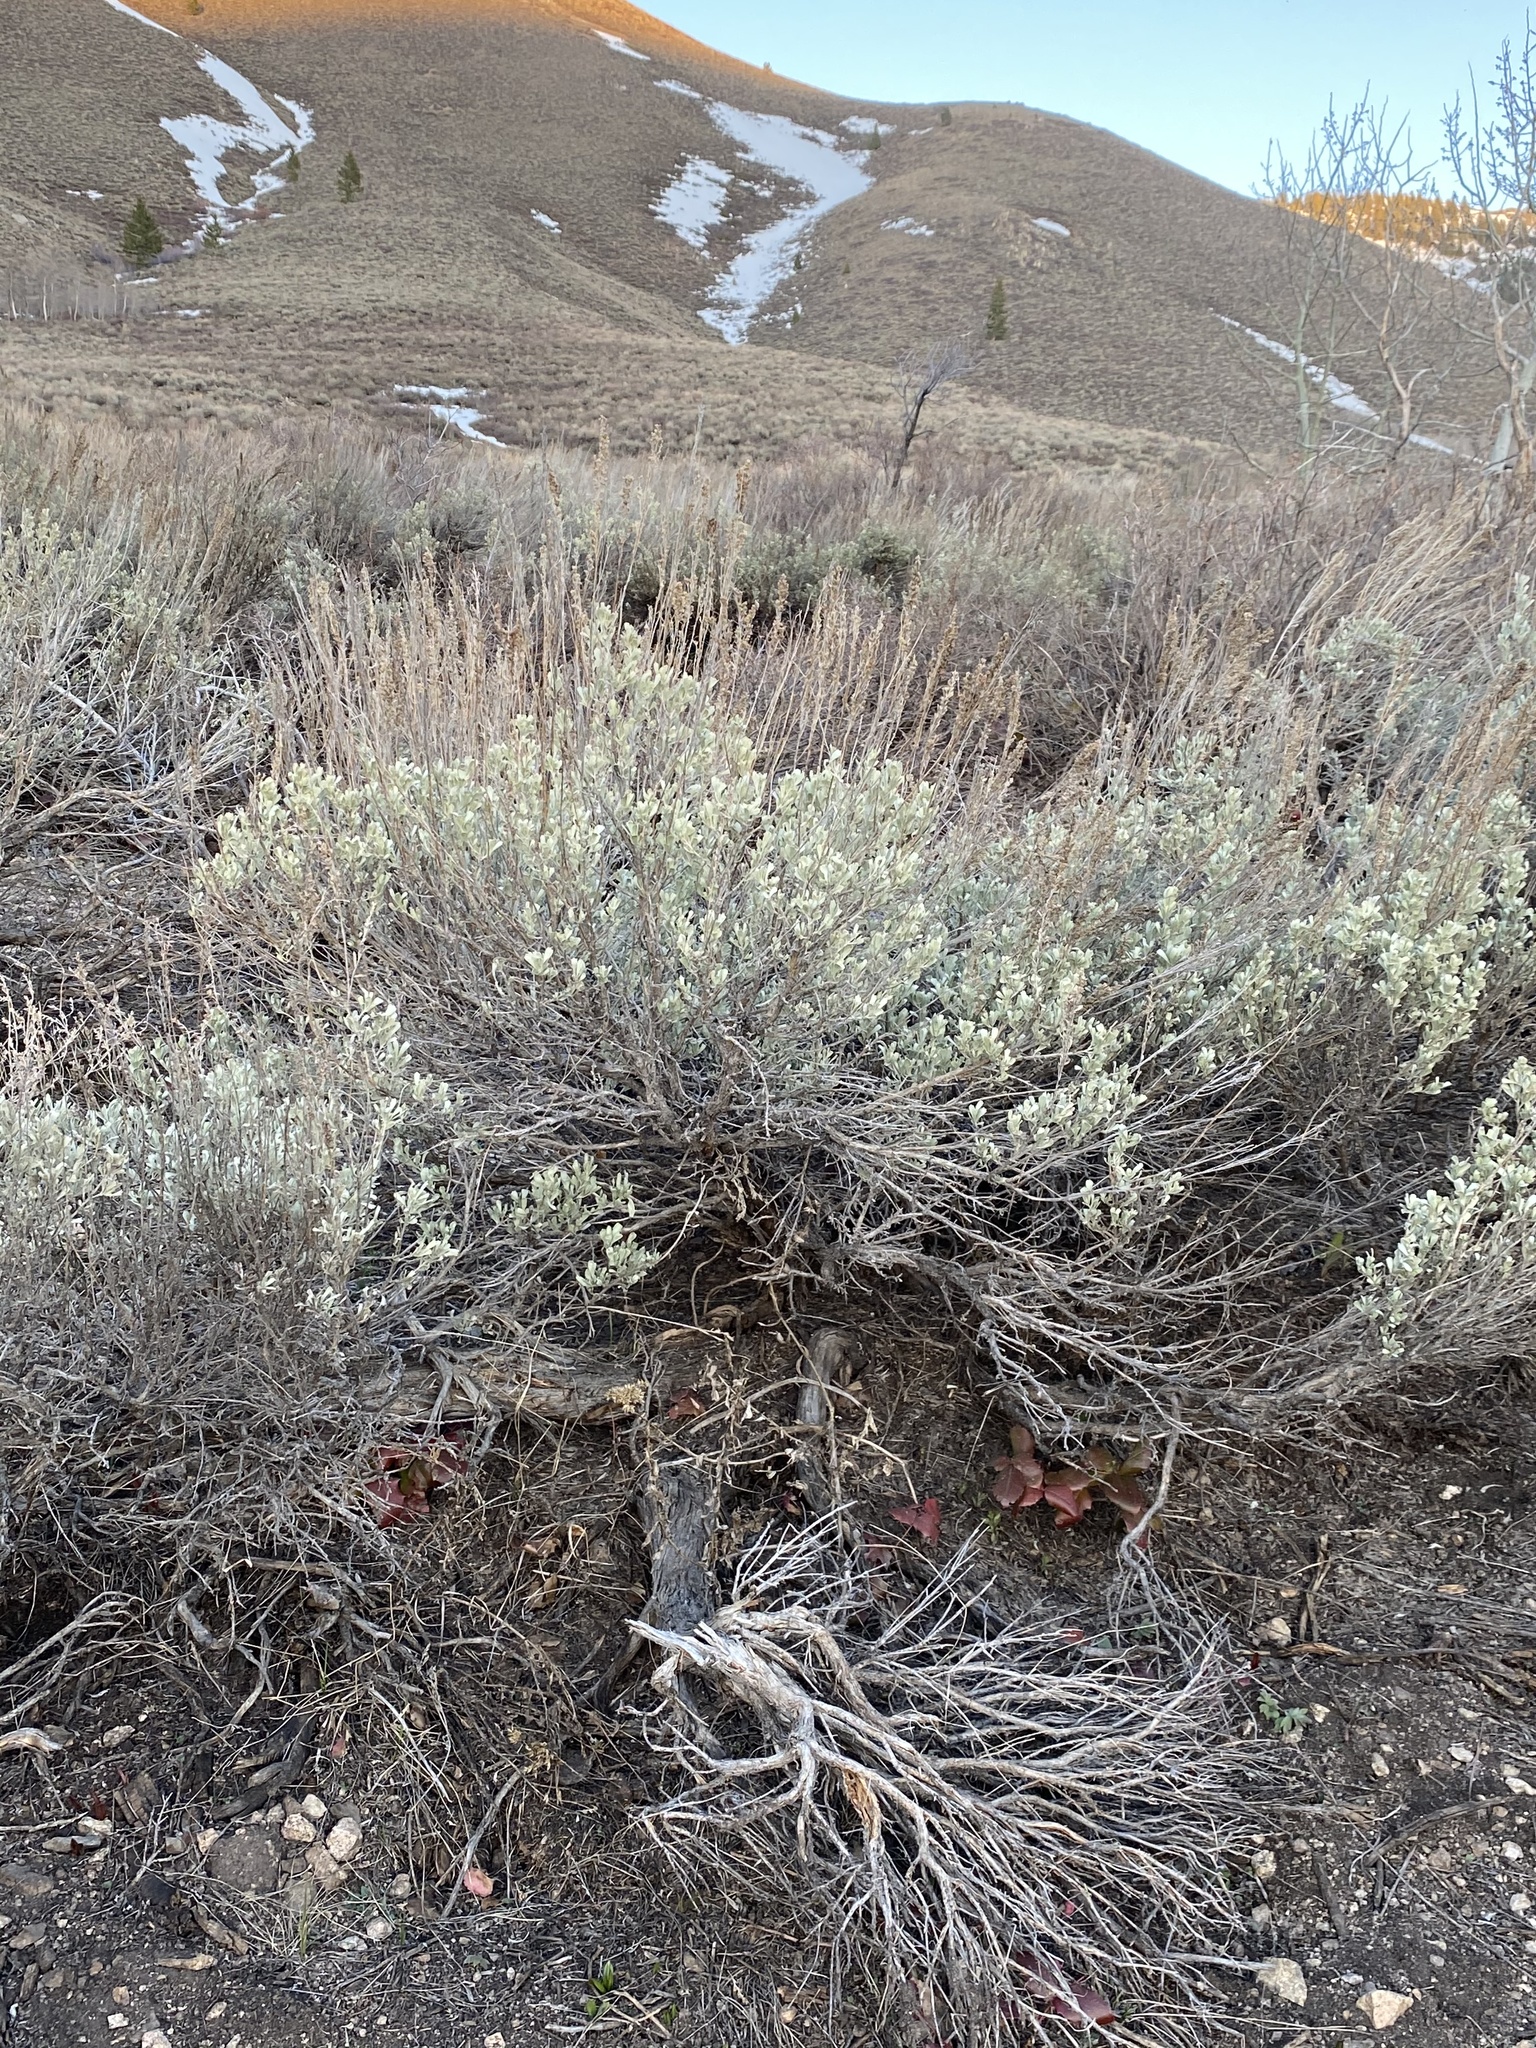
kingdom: Plantae
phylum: Tracheophyta
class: Magnoliopsida
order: Asterales
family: Asteraceae
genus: Artemisia
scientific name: Artemisia tridentata
